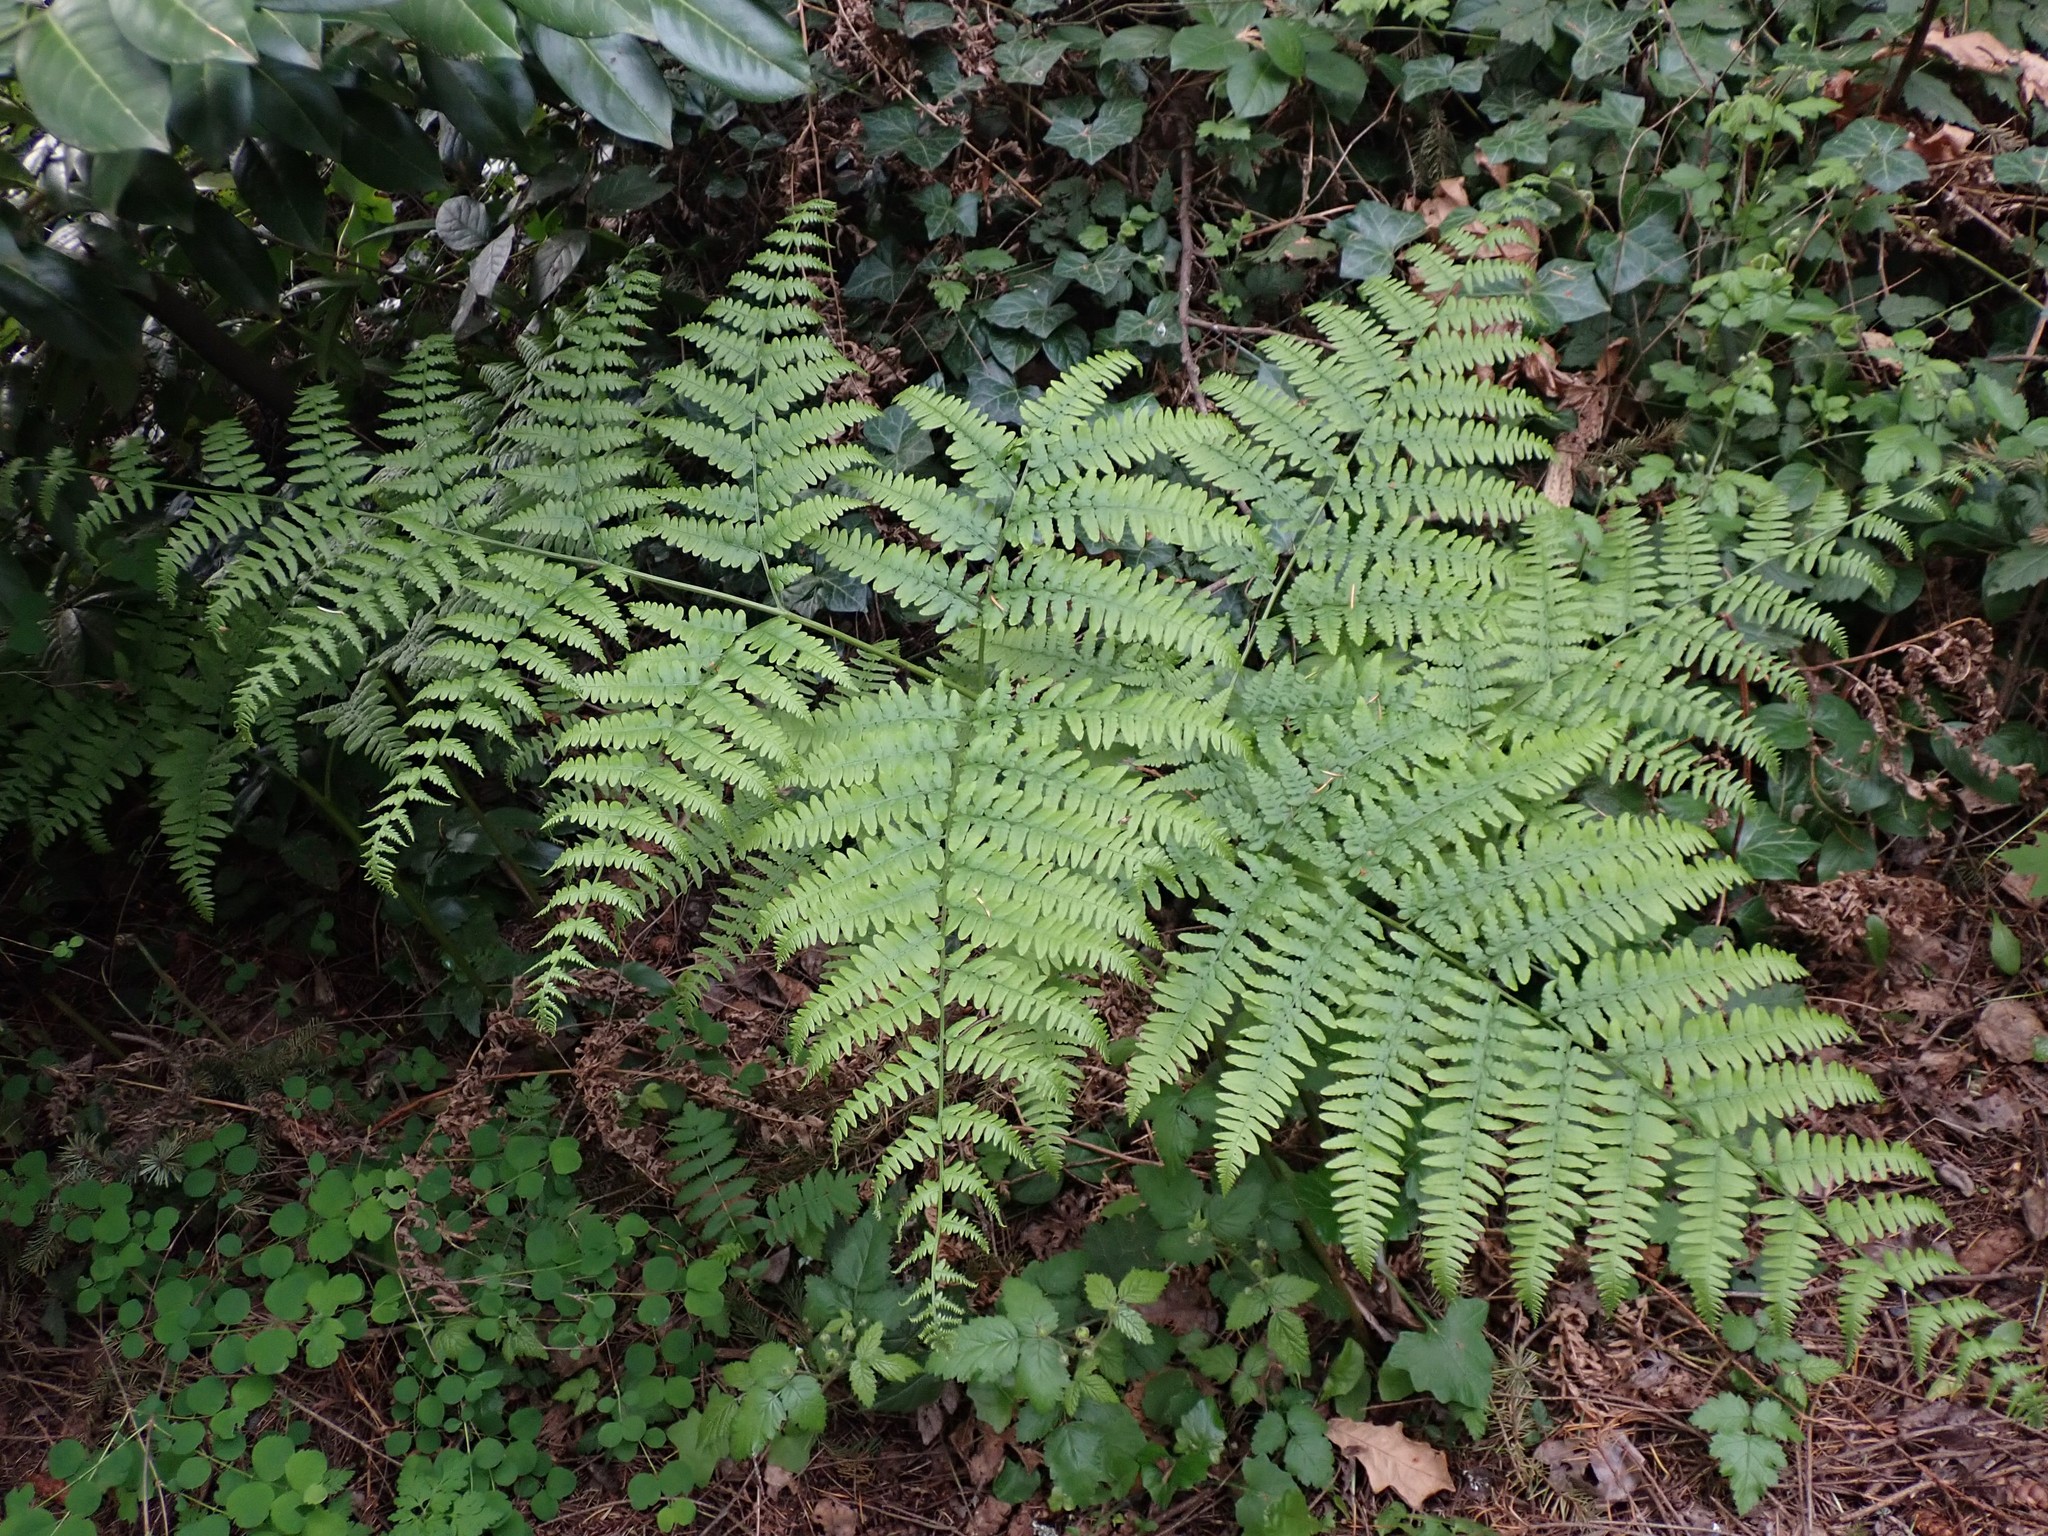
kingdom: Plantae
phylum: Tracheophyta
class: Polypodiopsida
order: Polypodiales
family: Dennstaedtiaceae
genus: Pteridium
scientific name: Pteridium aquilinum
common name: Bracken
